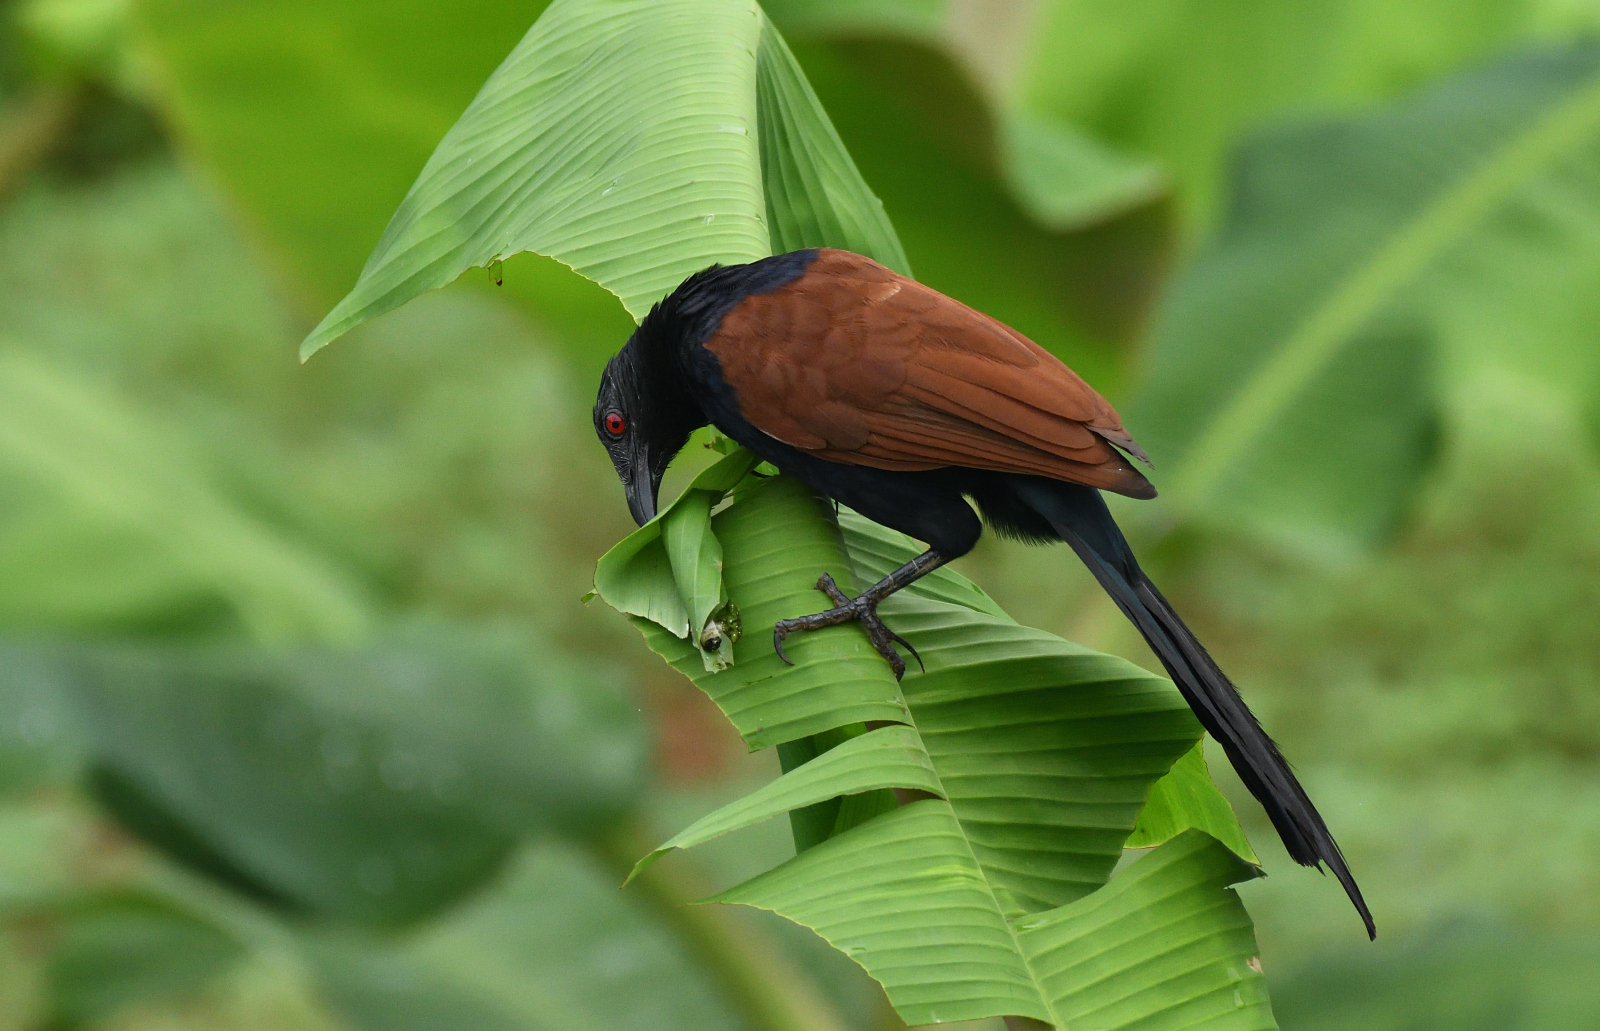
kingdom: Animalia
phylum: Chordata
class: Aves
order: Cuculiformes
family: Cuculidae
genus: Centropus
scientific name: Centropus sinensis
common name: Greater coucal
